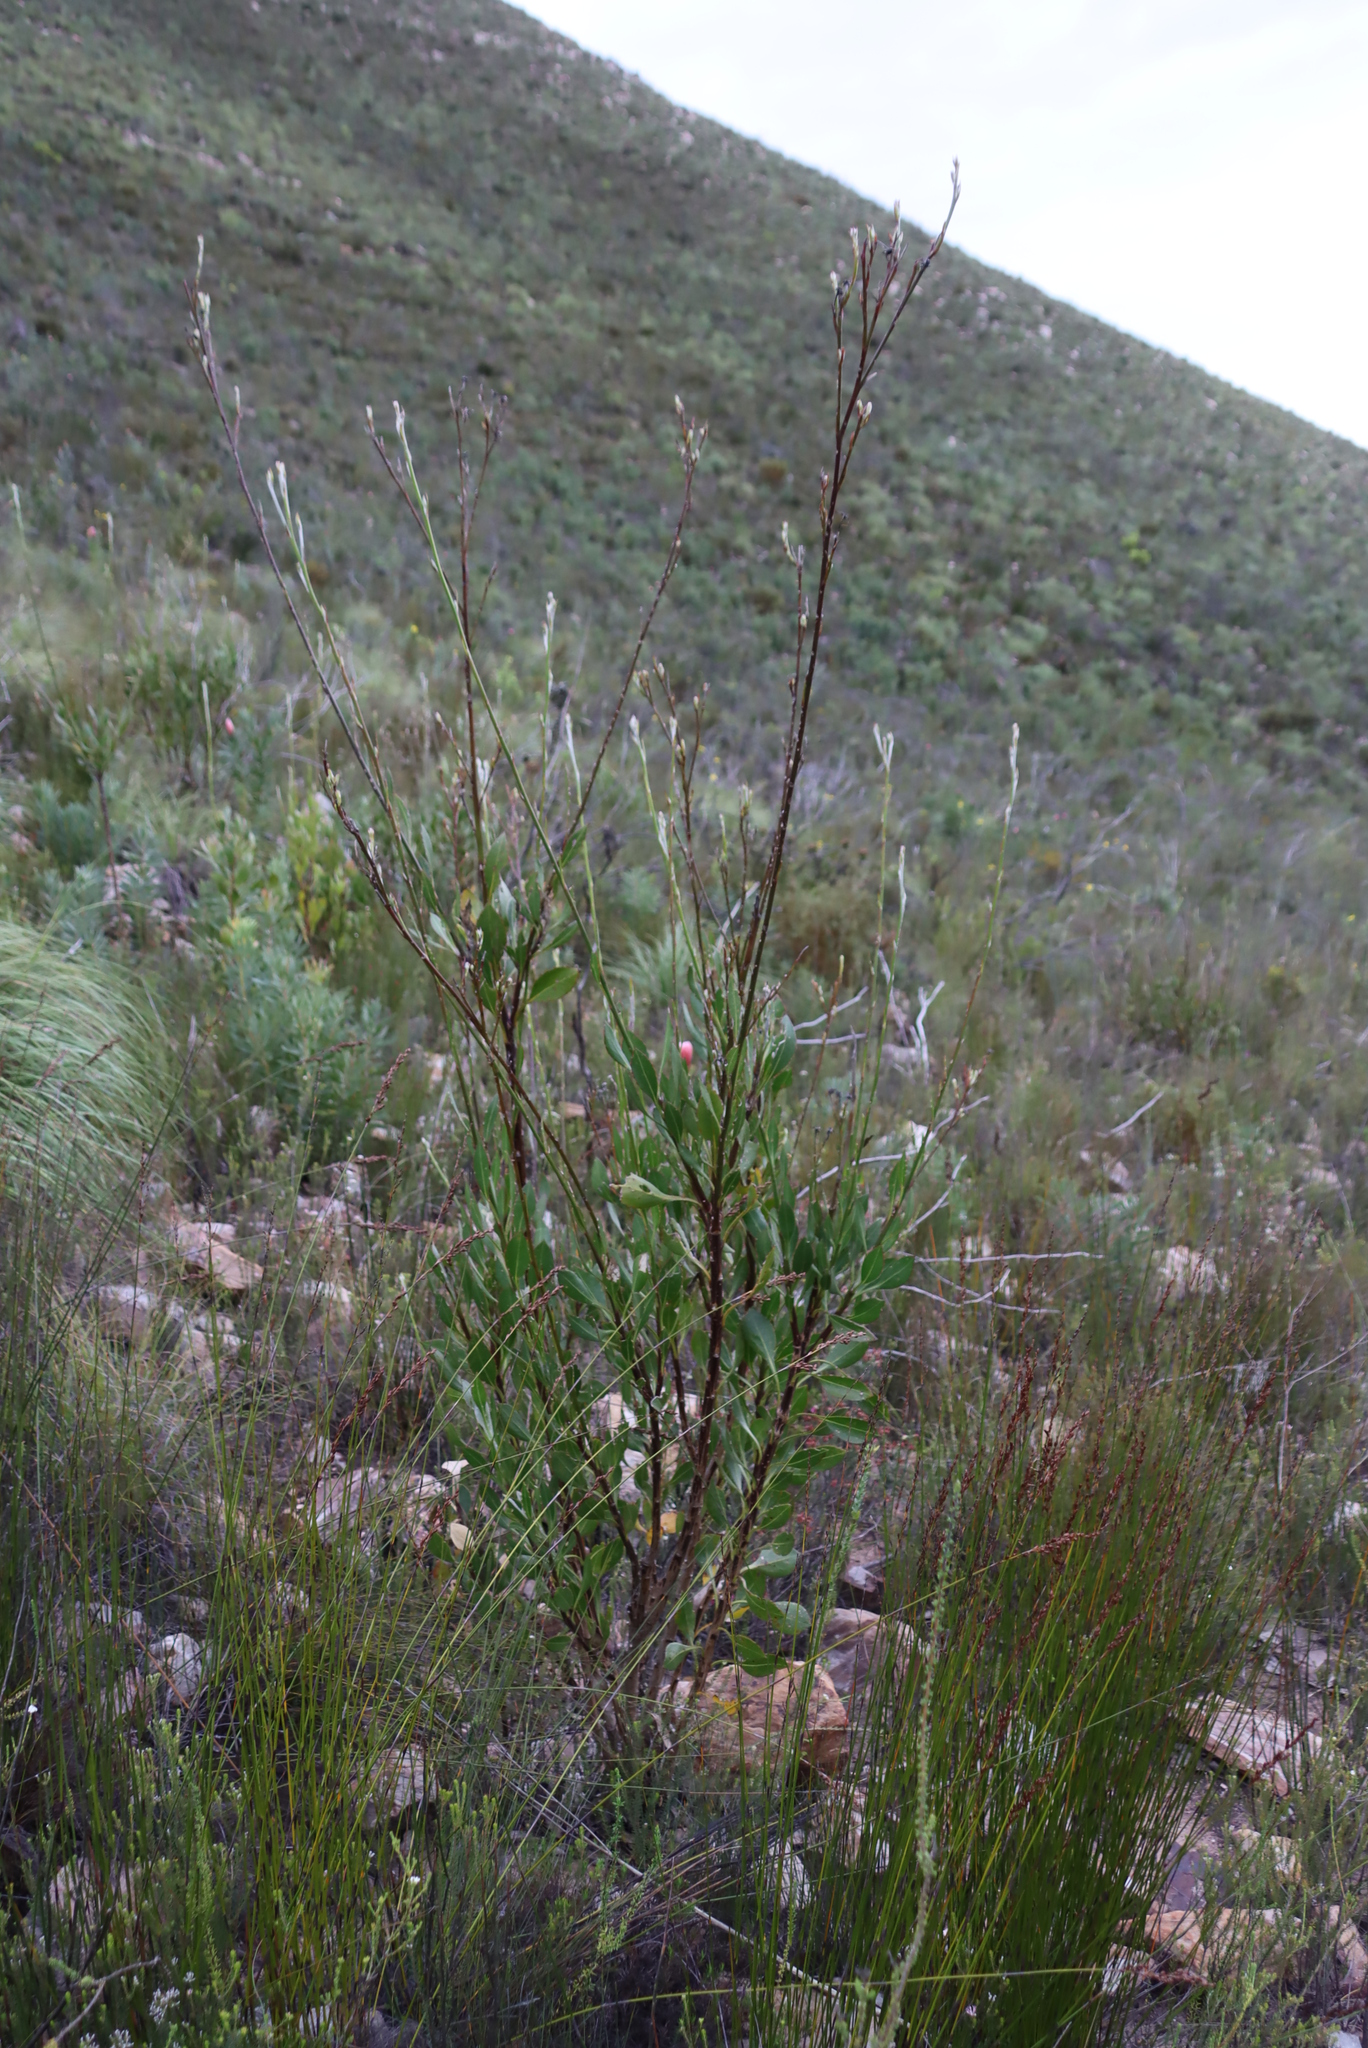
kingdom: Plantae
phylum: Tracheophyta
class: Magnoliopsida
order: Asterales
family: Asteraceae
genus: Osteospermum
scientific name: Osteospermum junceum
